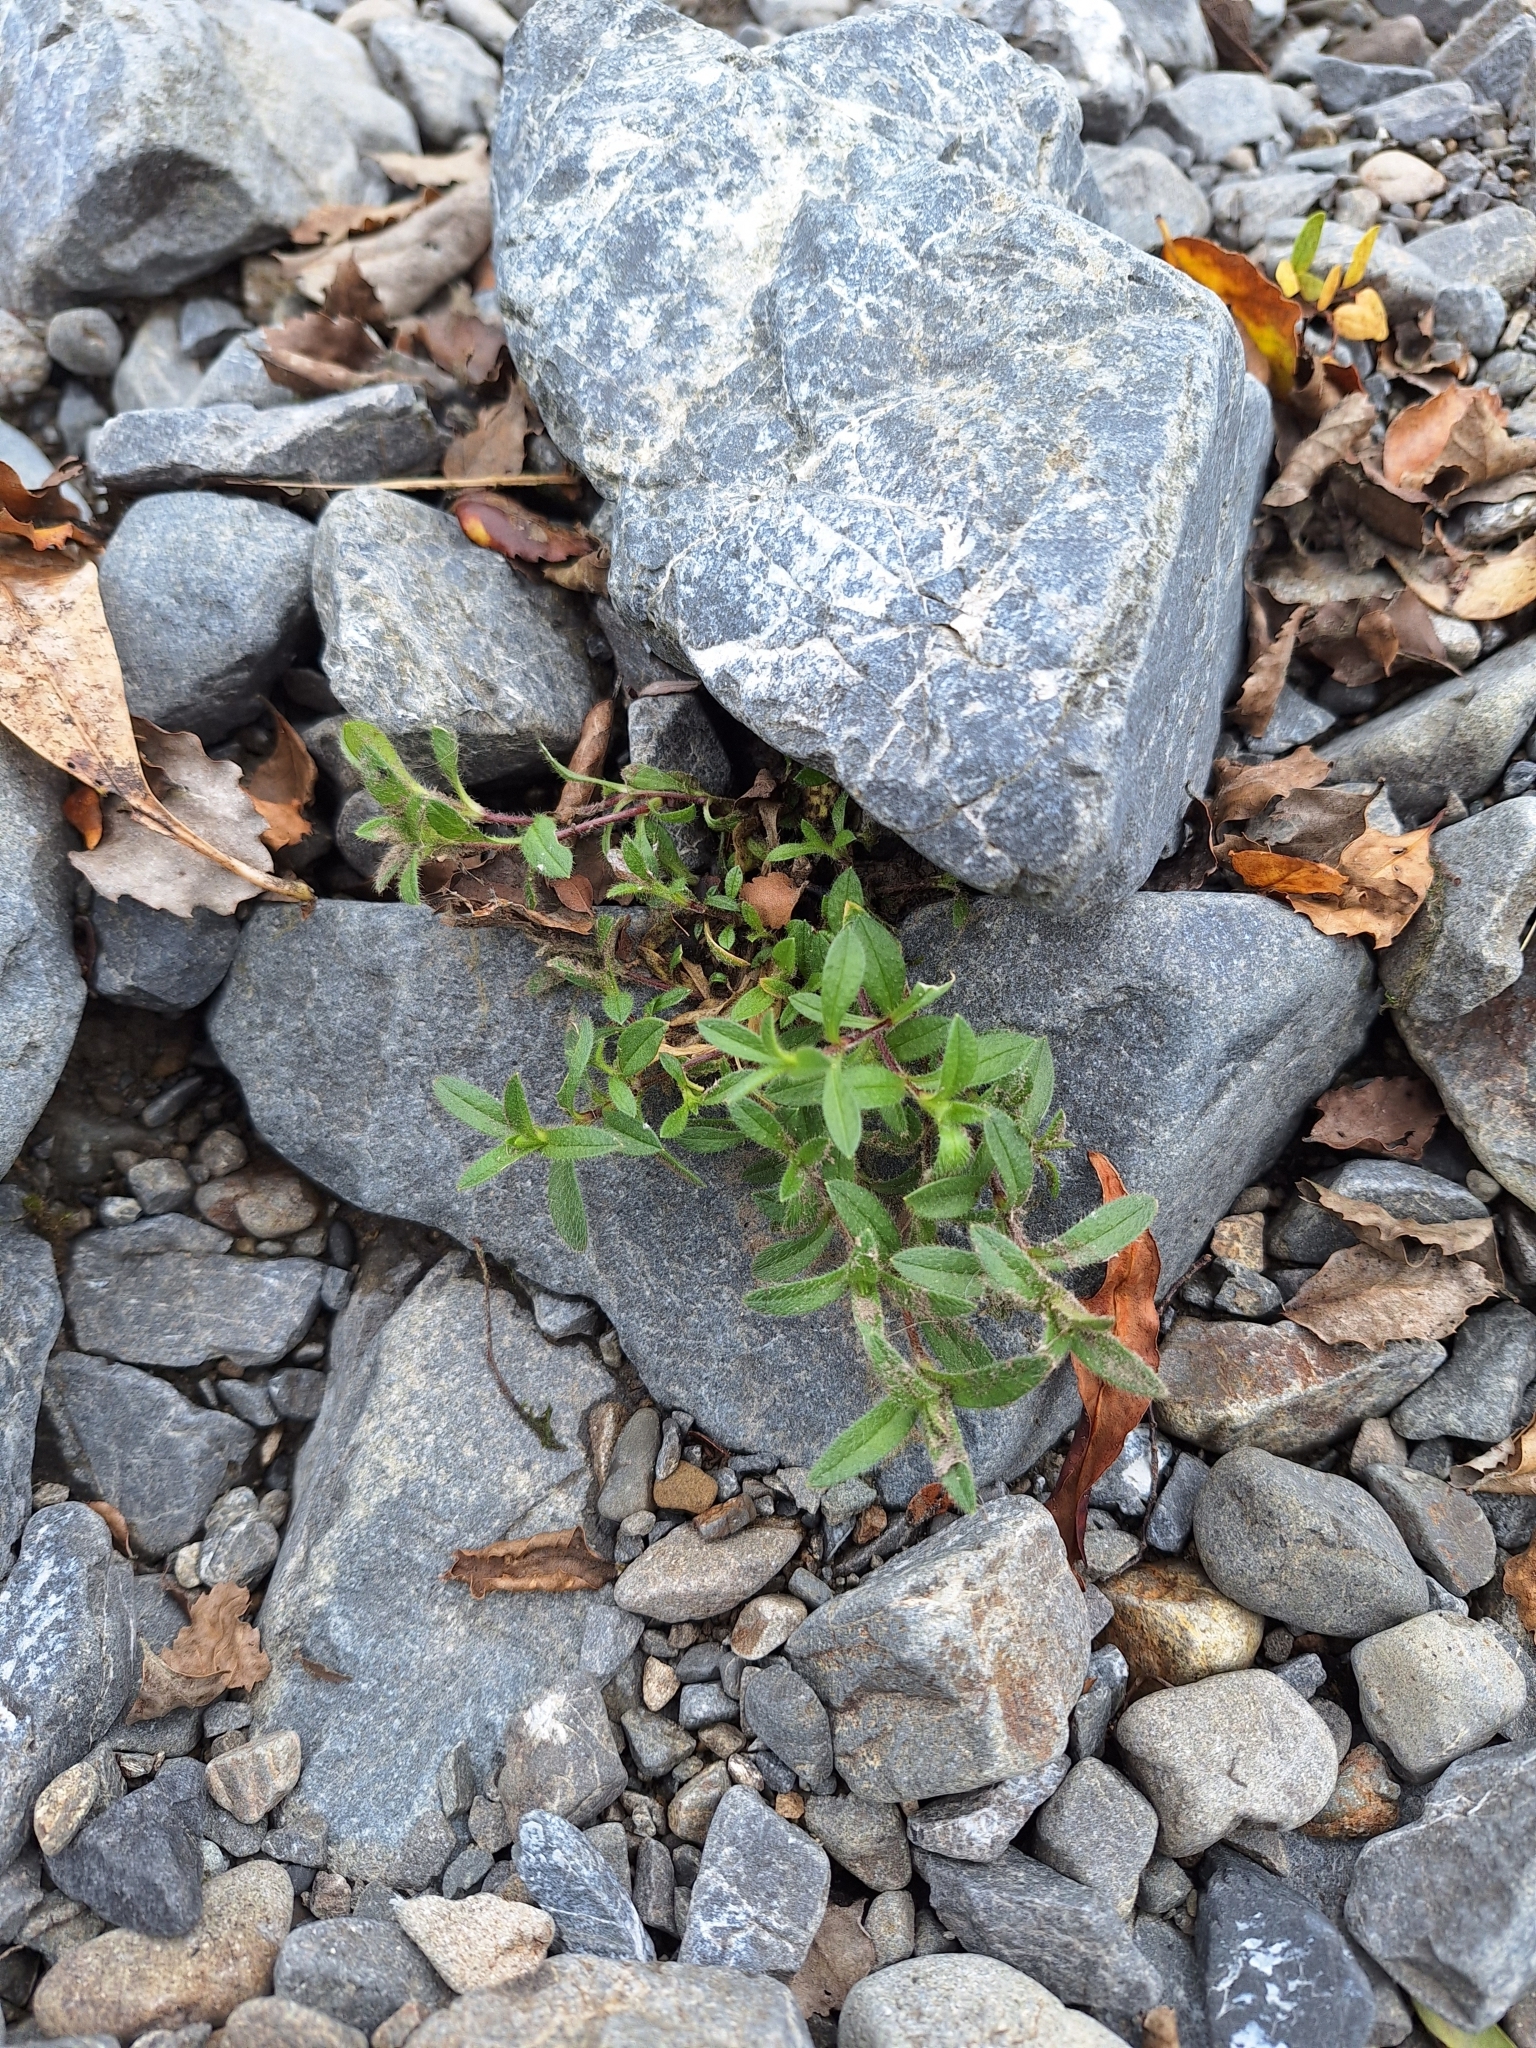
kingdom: Plantae
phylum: Tracheophyta
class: Magnoliopsida
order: Caryophyllales
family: Caryophyllaceae
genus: Cerastium
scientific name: Cerastium fontanum
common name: Common mouse-ear
